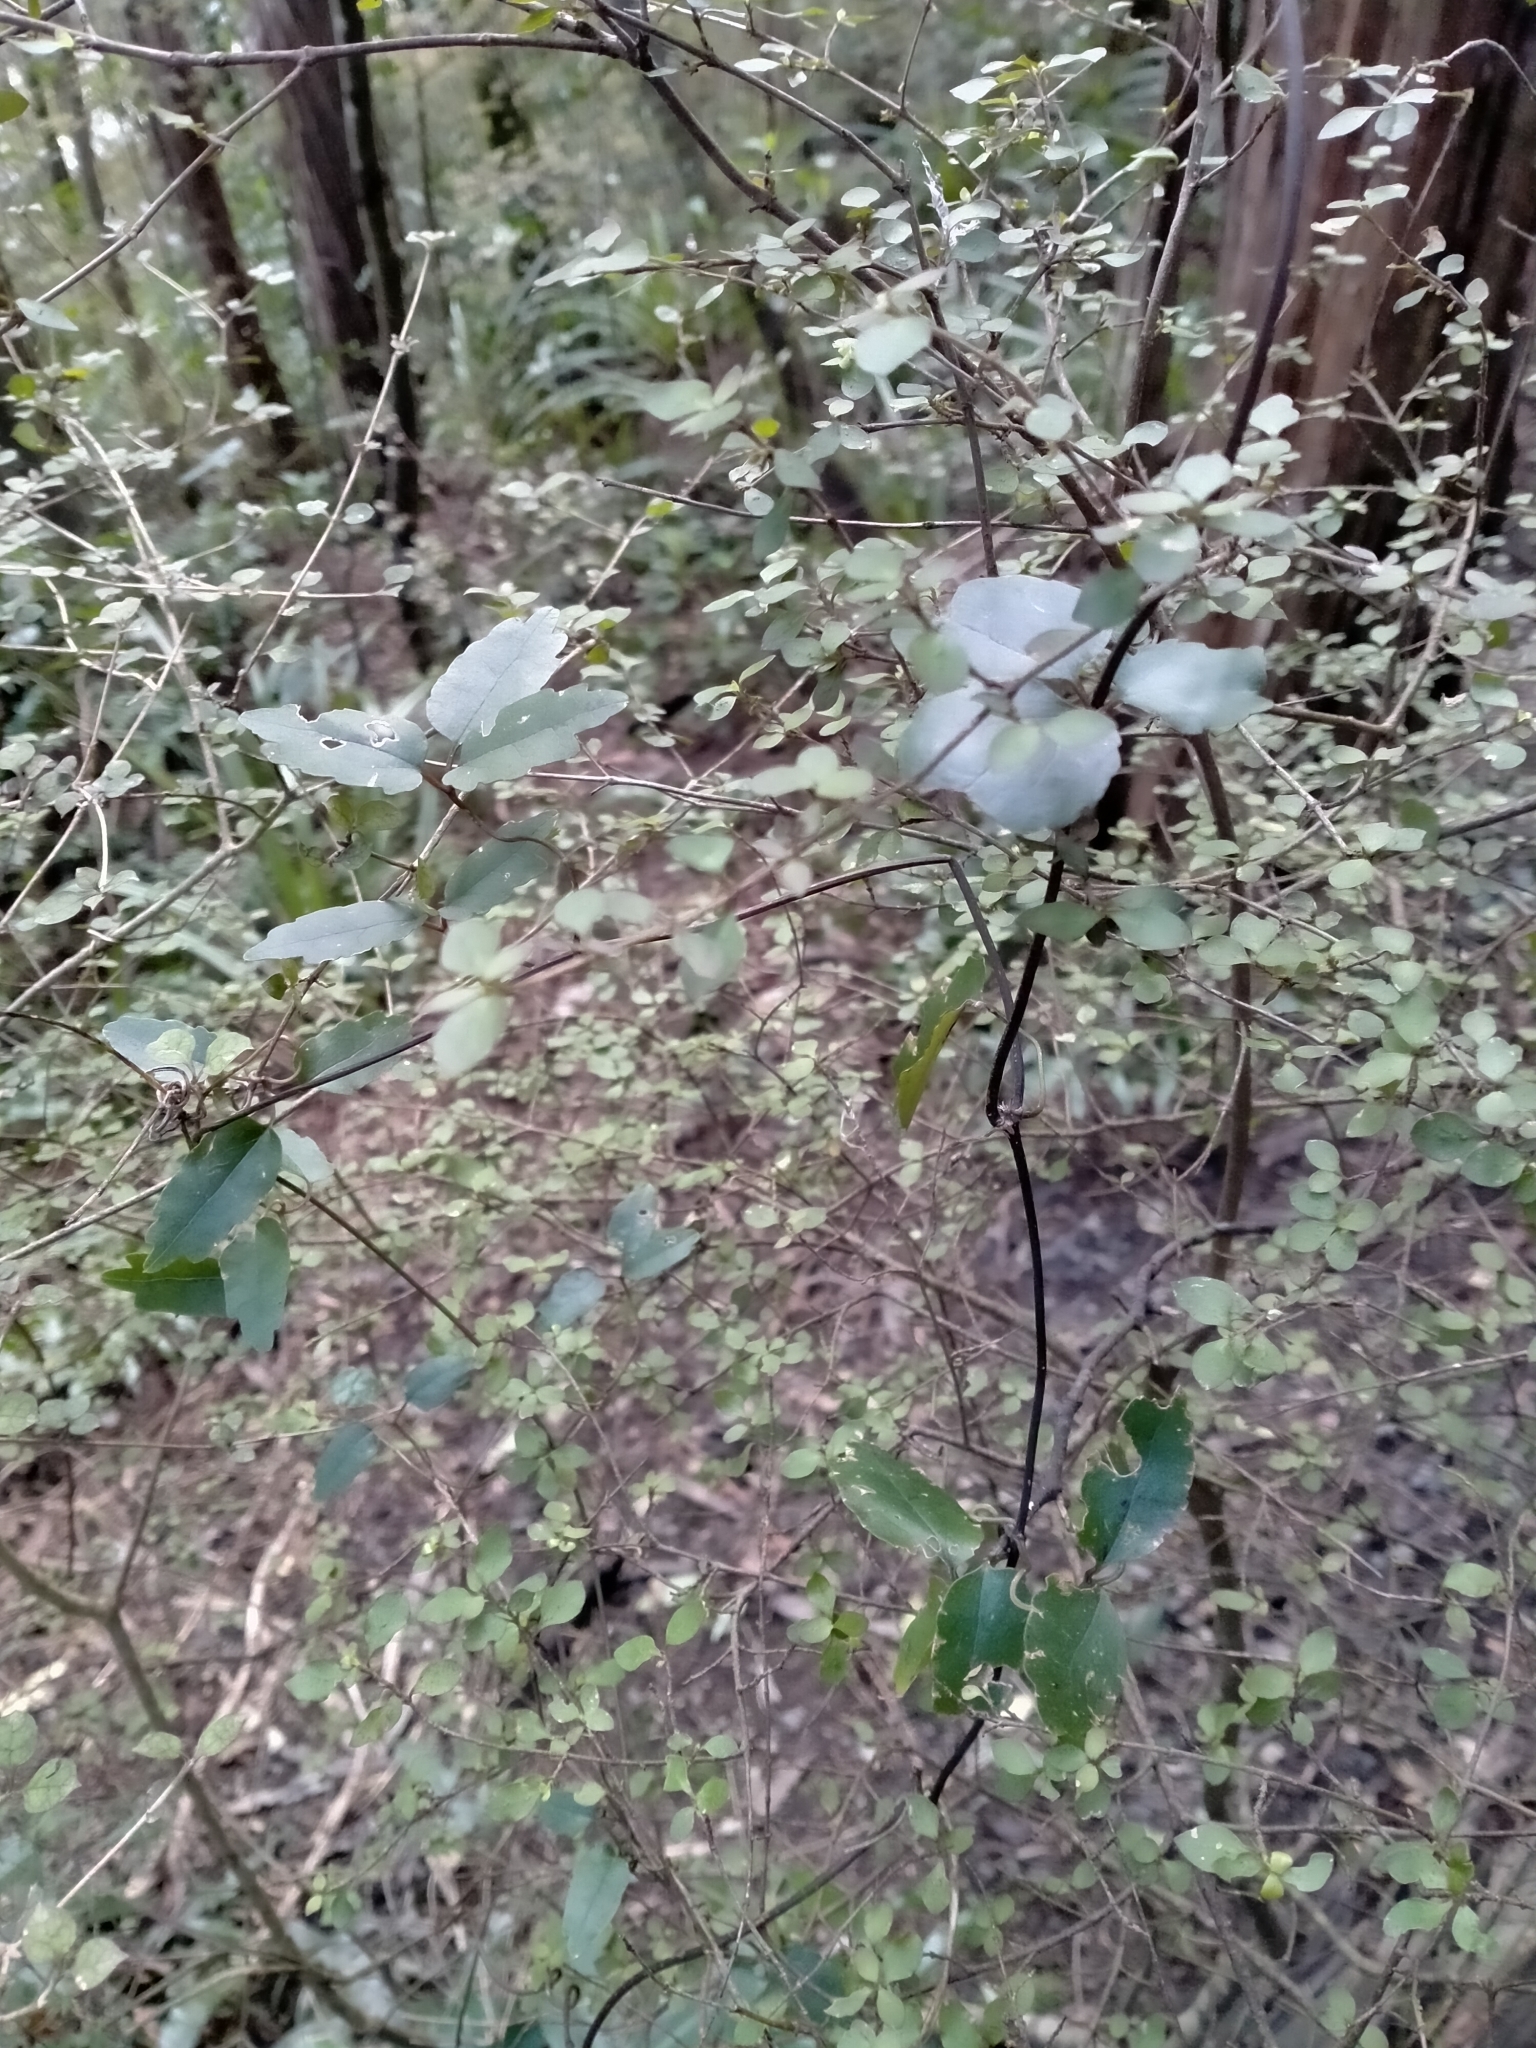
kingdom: Plantae
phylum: Tracheophyta
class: Magnoliopsida
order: Ranunculales
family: Ranunculaceae
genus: Clematis
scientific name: Clematis paniculata
